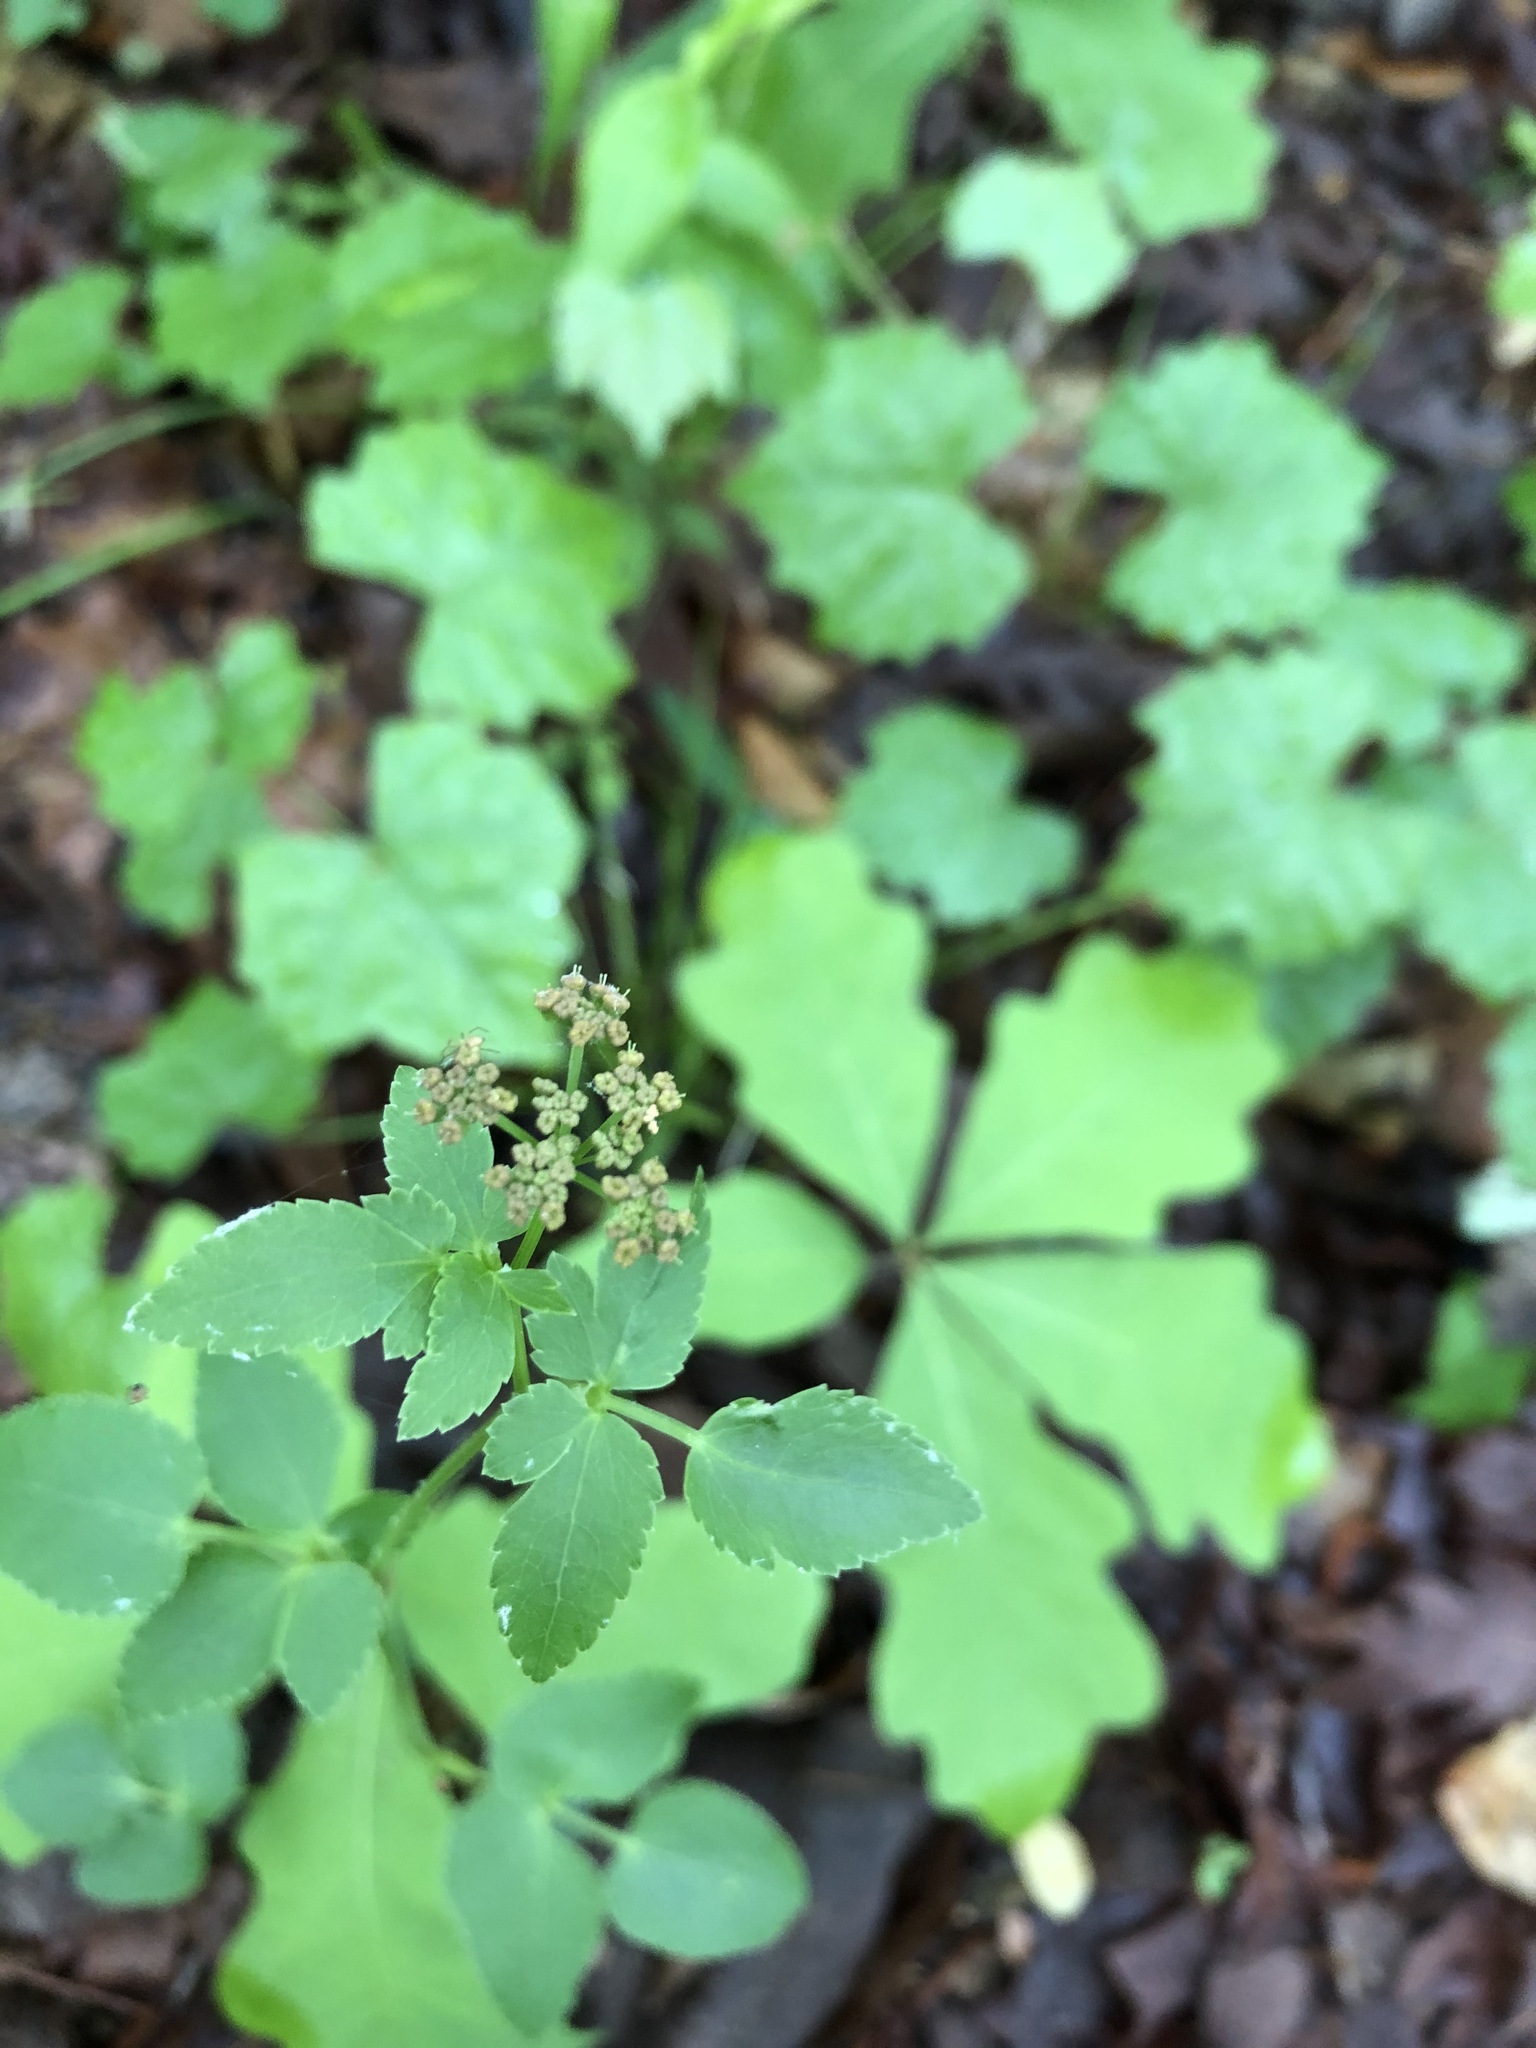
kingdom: Plantae
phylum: Tracheophyta
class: Magnoliopsida
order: Apiales
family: Apiaceae
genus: Thaspium
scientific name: Thaspium trifoliatum
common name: Purple meadow-parsnip
